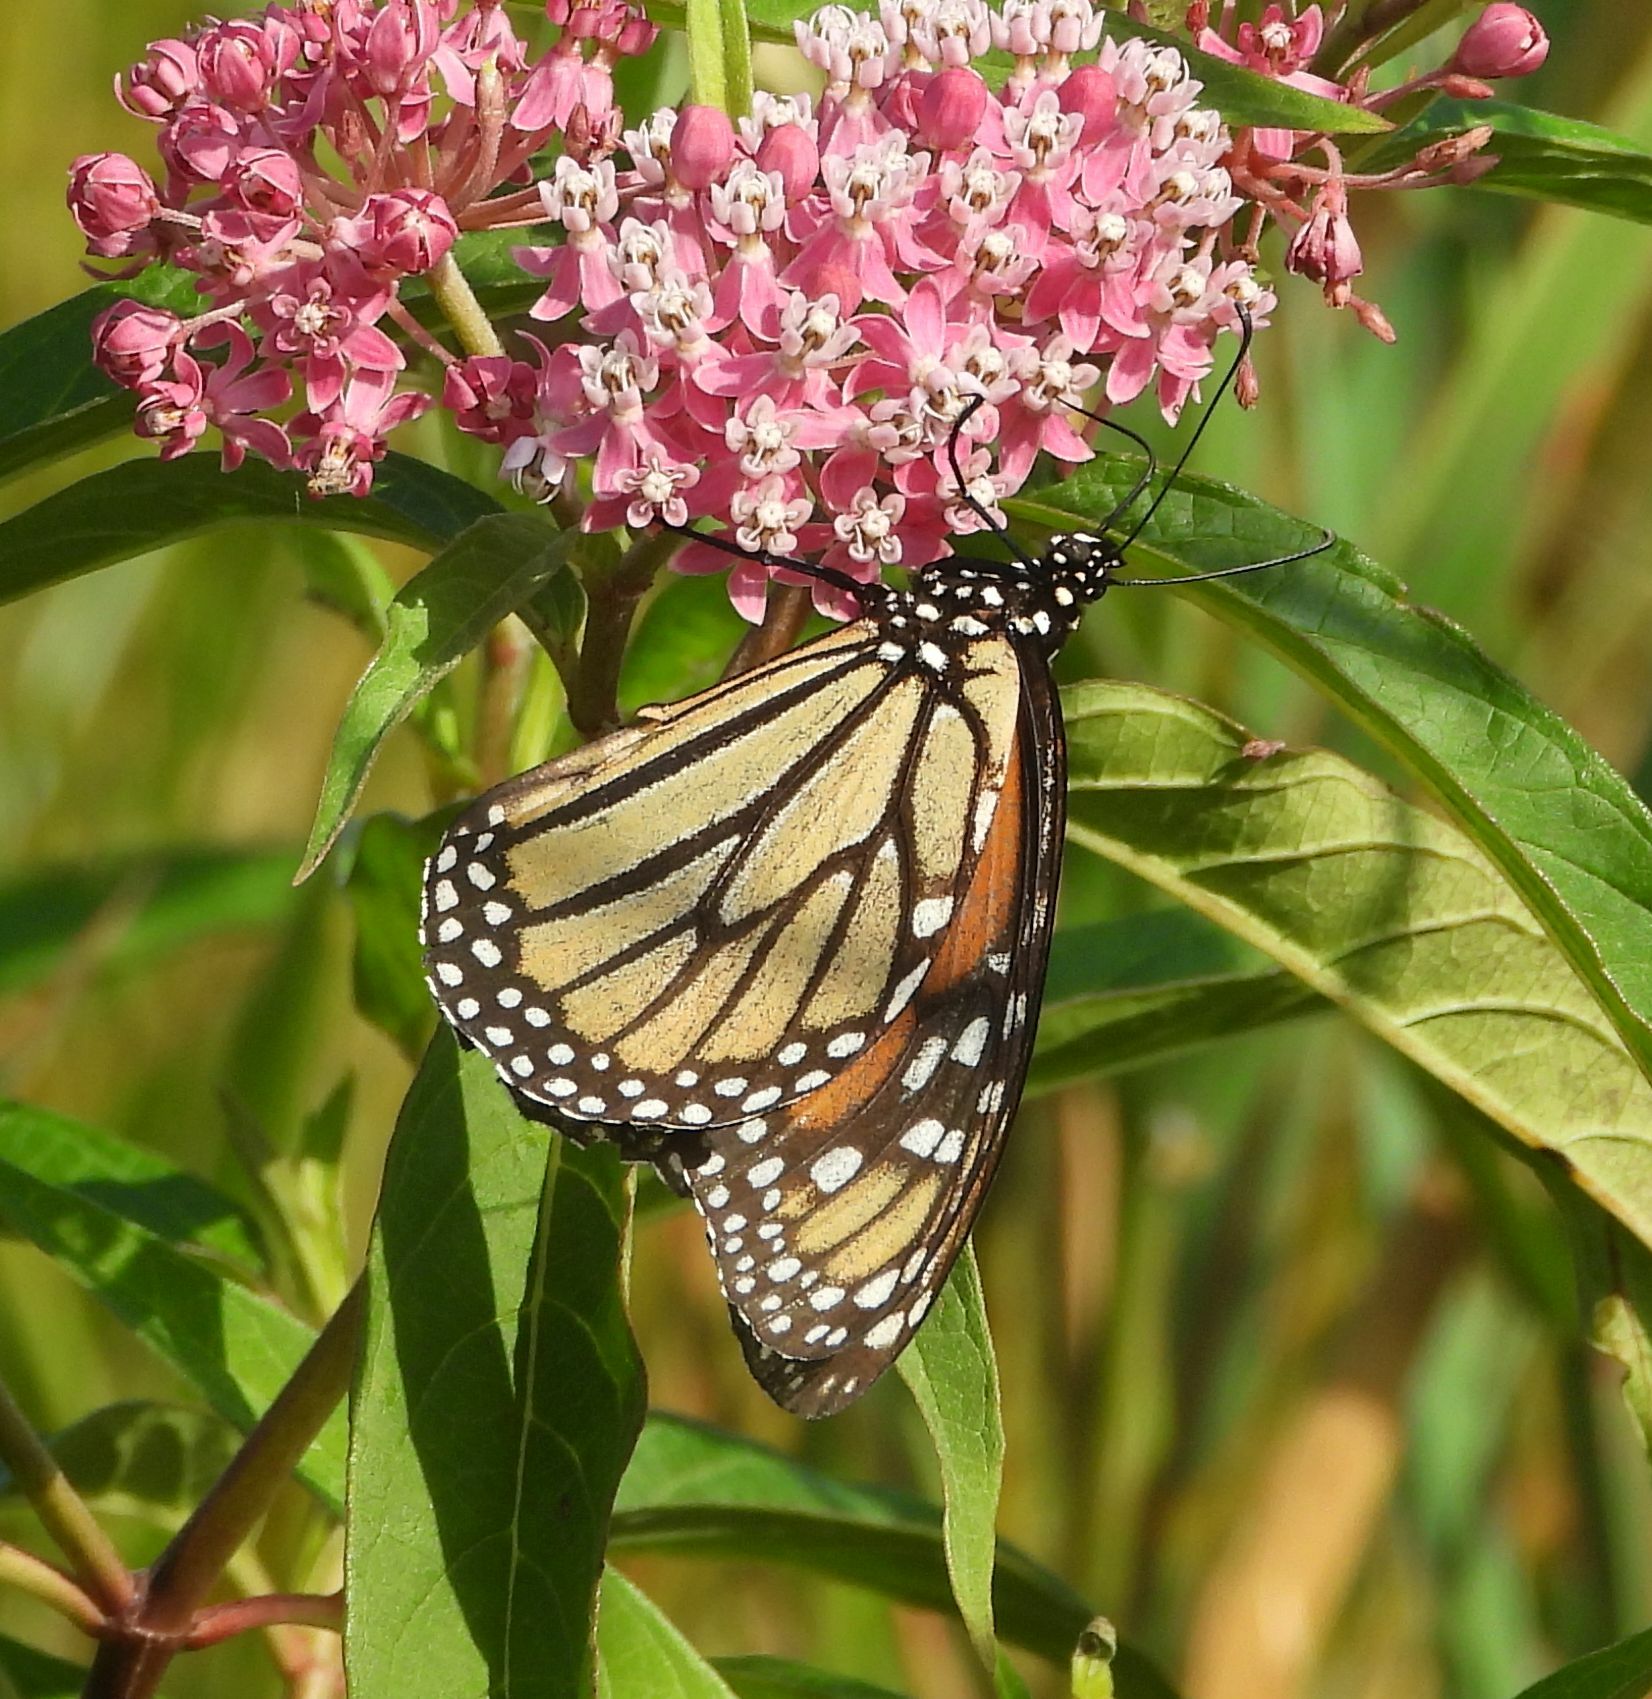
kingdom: Animalia
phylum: Arthropoda
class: Insecta
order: Lepidoptera
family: Nymphalidae
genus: Danaus
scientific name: Danaus plexippus
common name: Monarch
